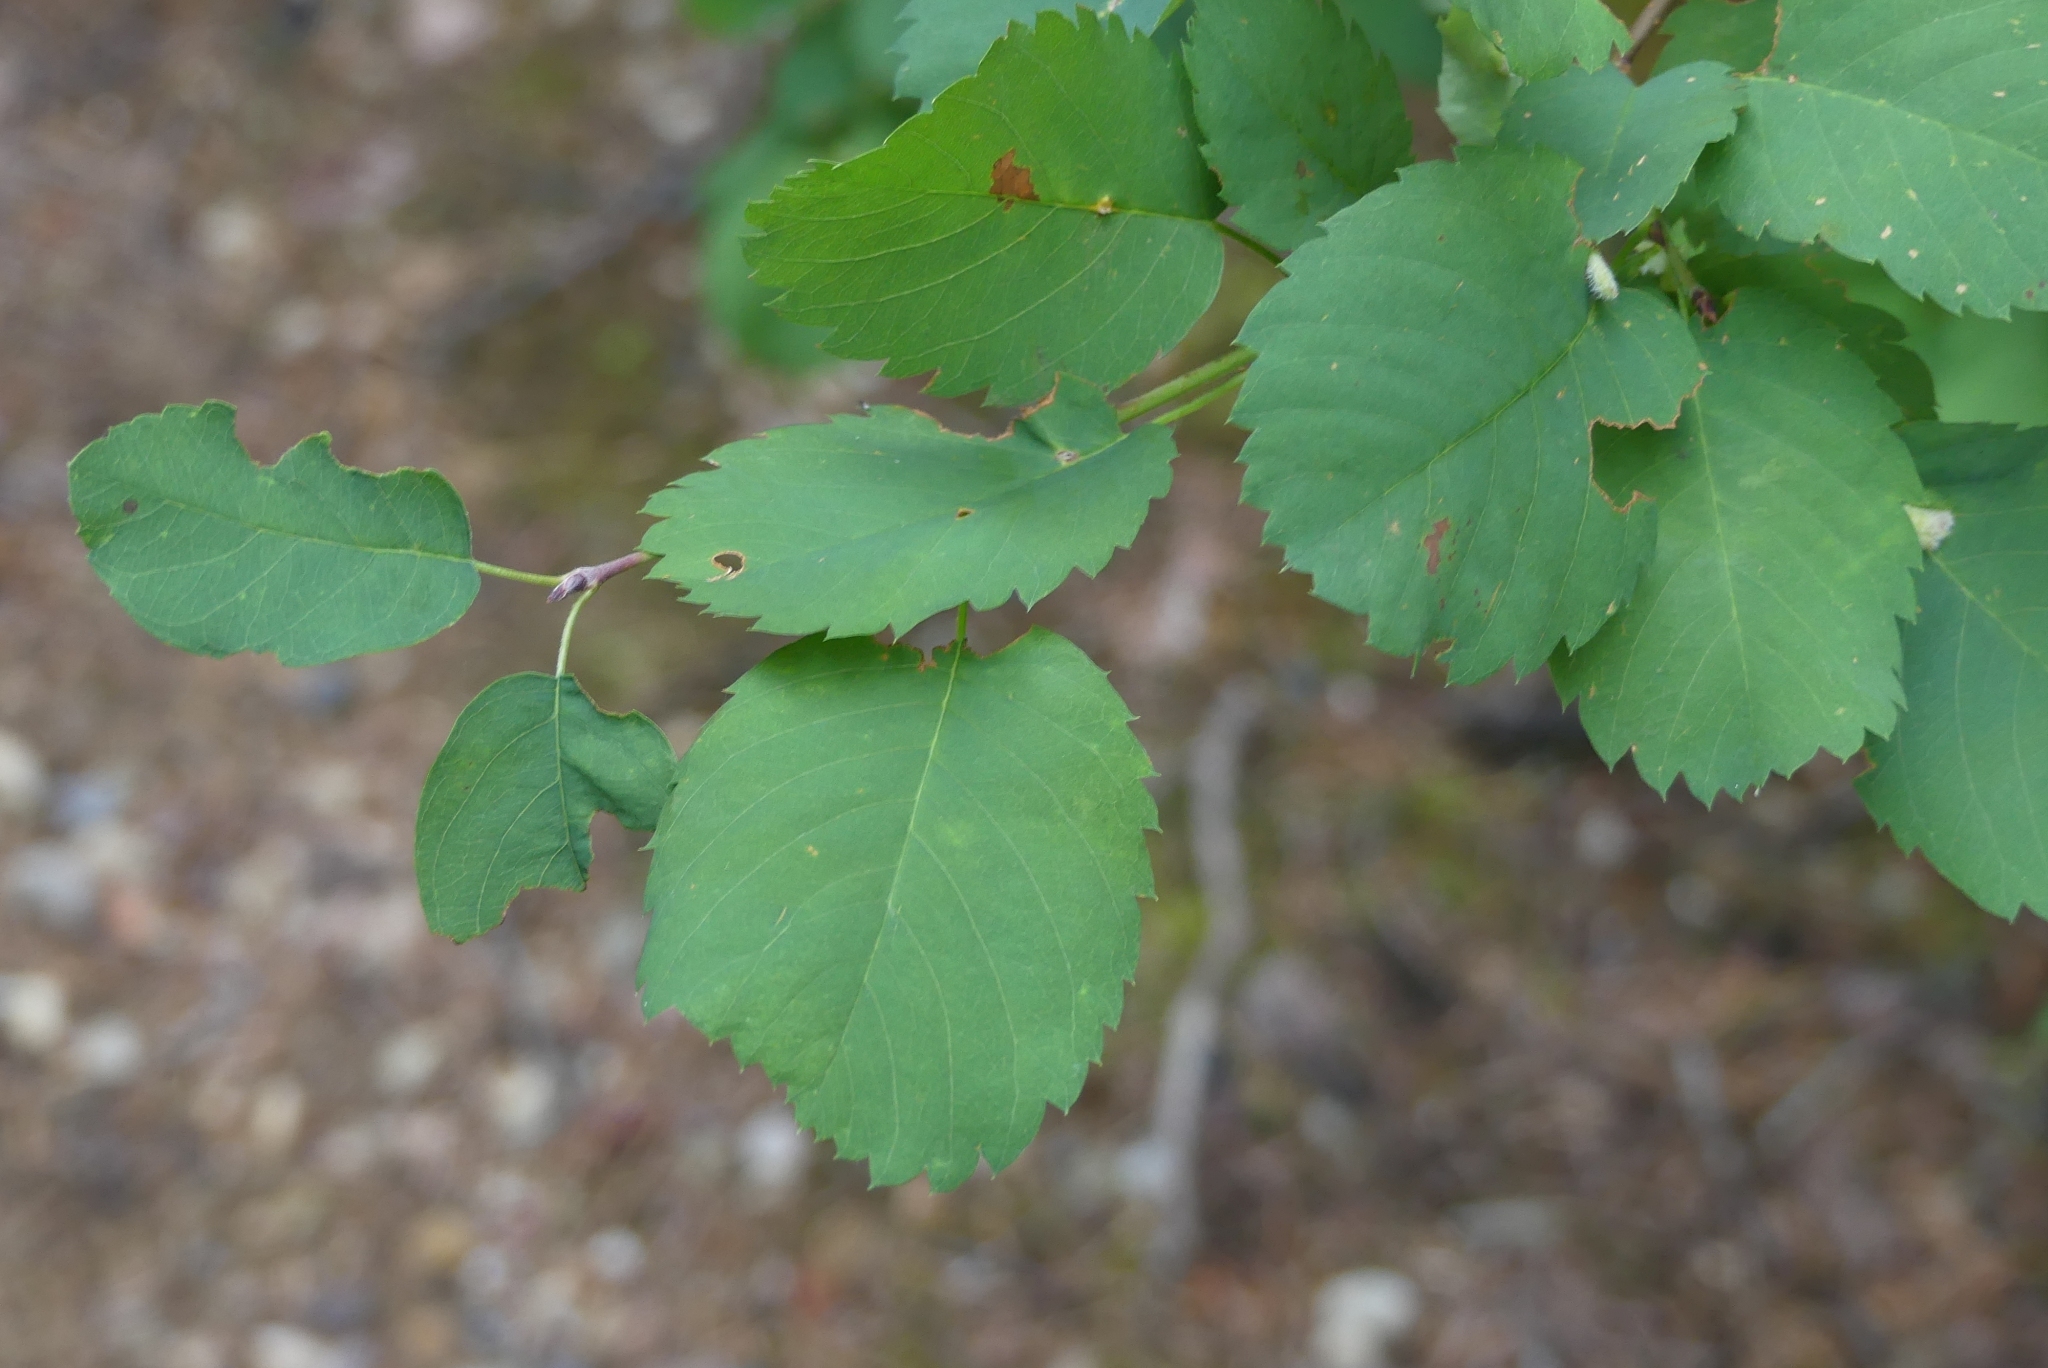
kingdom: Plantae
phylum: Tracheophyta
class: Magnoliopsida
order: Rosales
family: Rosaceae
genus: Amelanchier
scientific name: Amelanchier alnifolia
